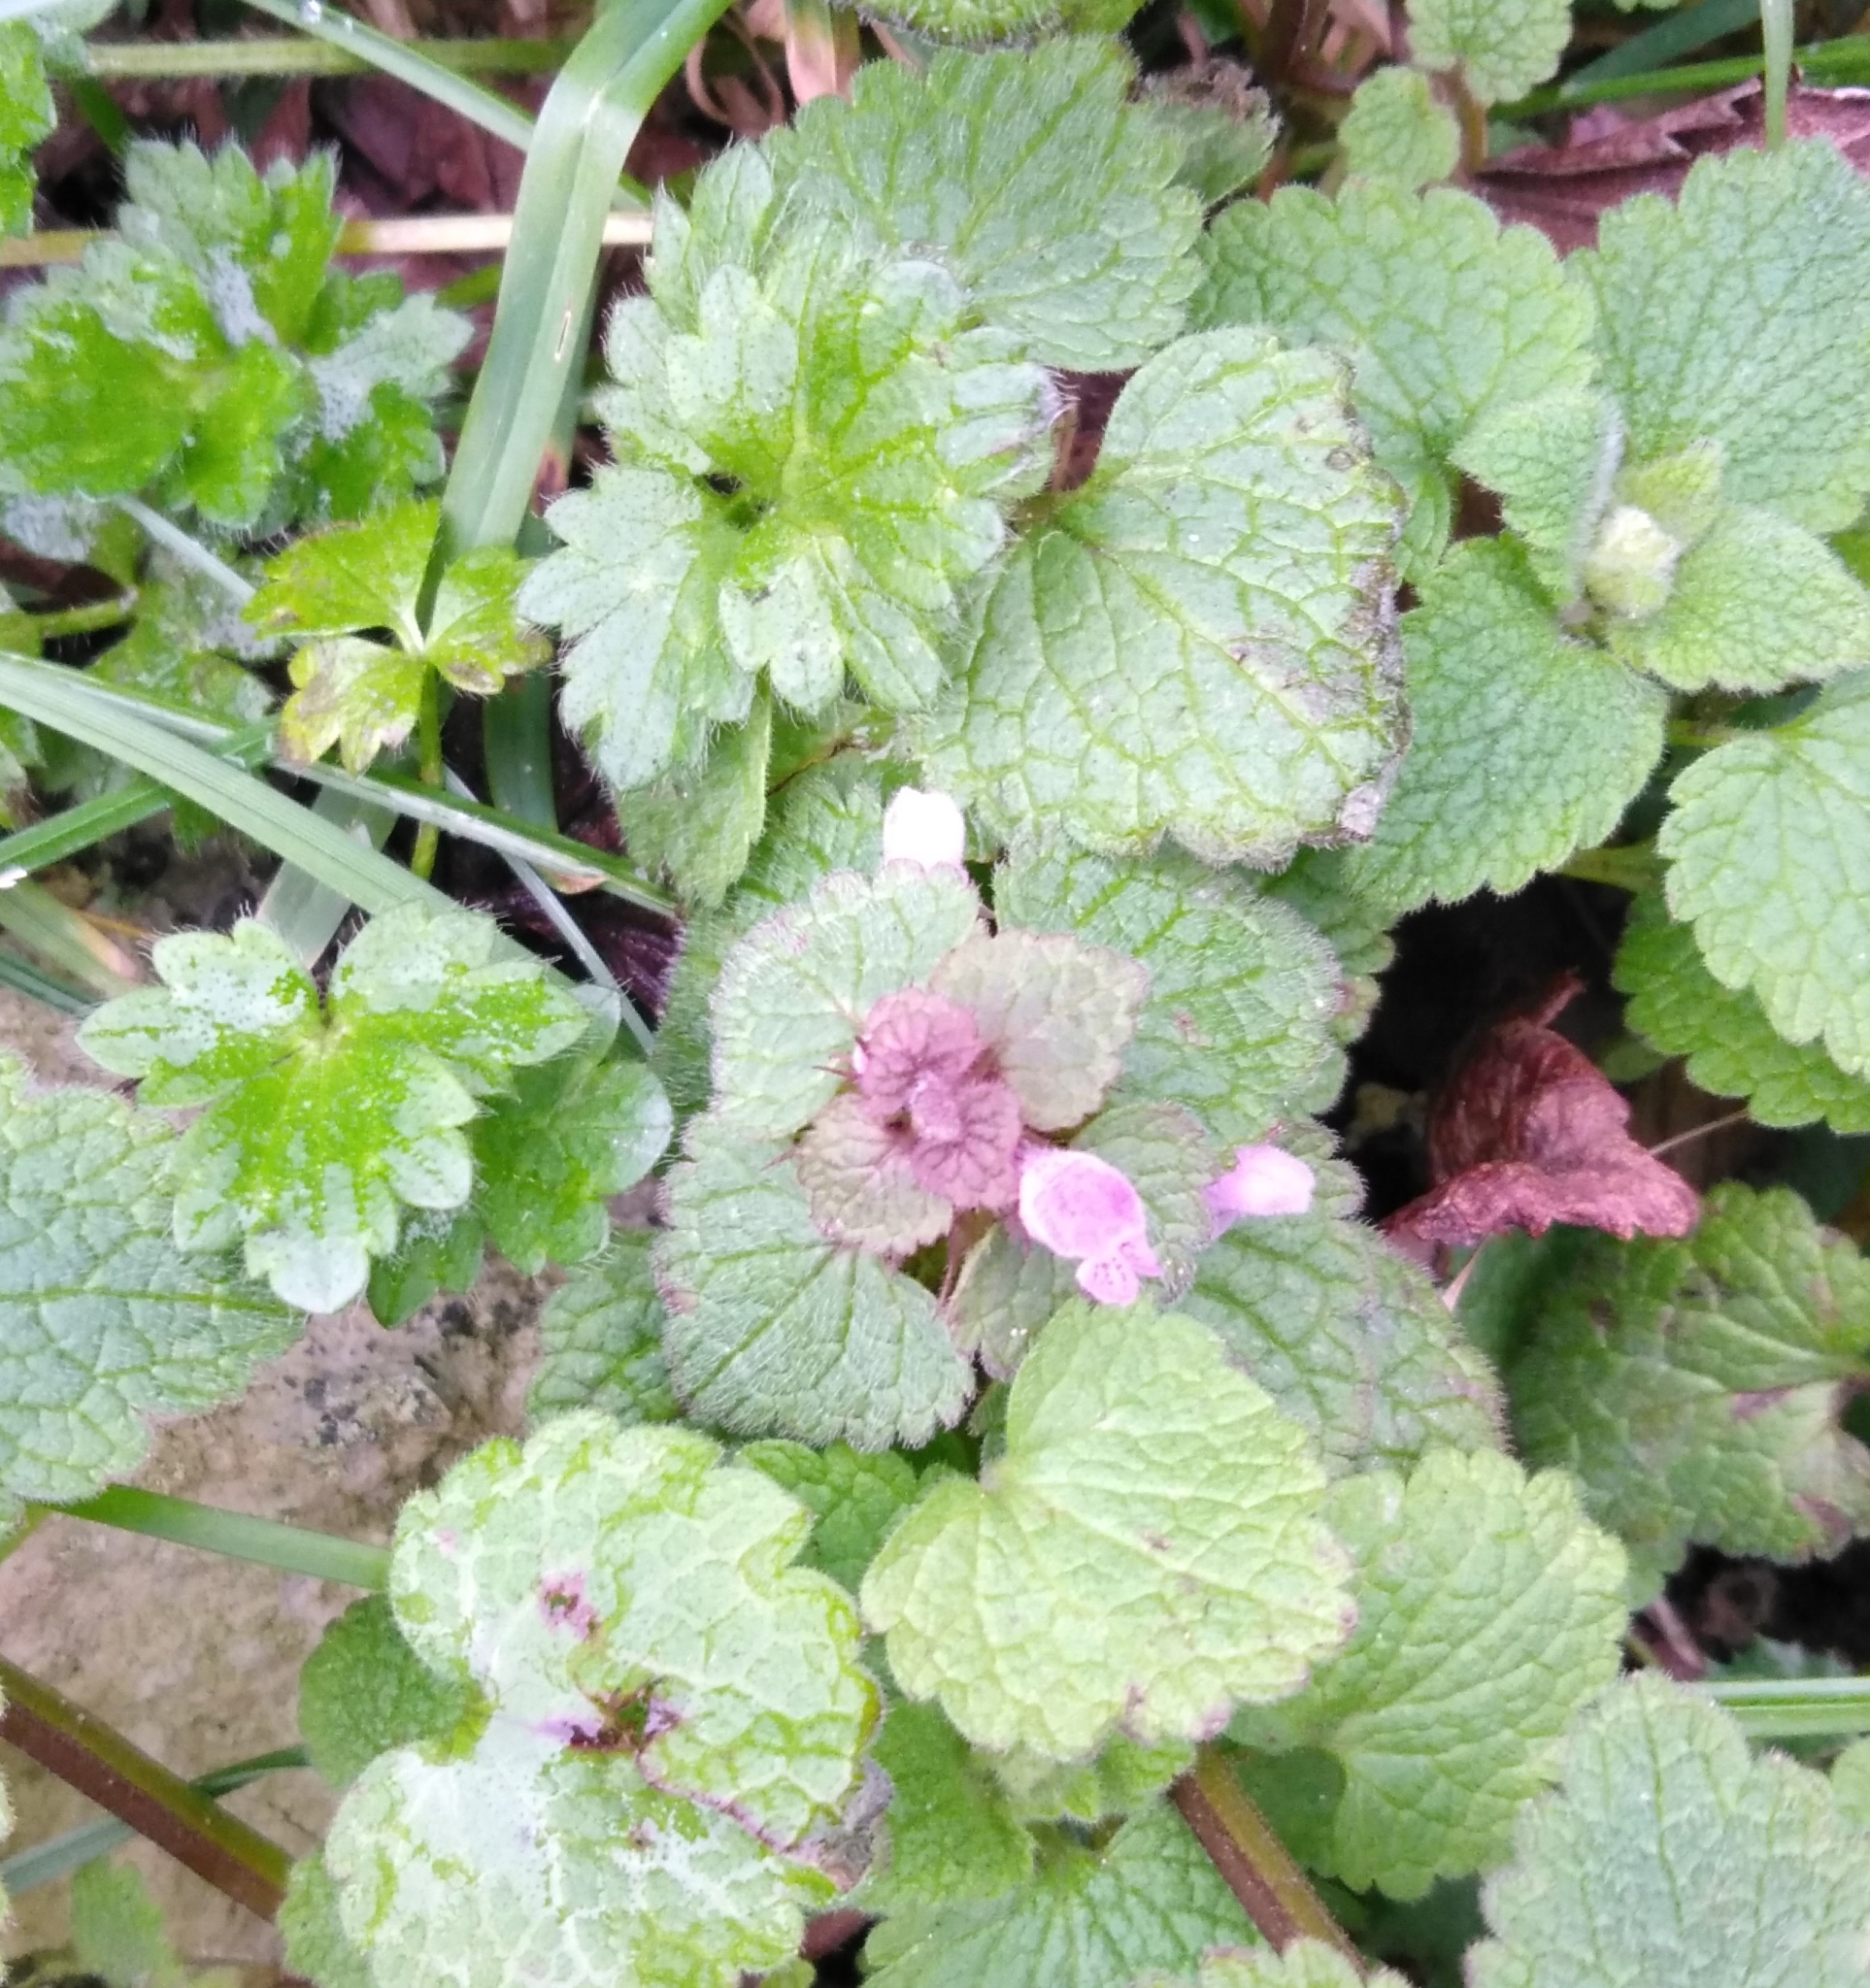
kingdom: Plantae
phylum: Tracheophyta
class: Magnoliopsida
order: Lamiales
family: Lamiaceae
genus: Lamium
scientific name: Lamium purpureum
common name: Red dead-nettle
